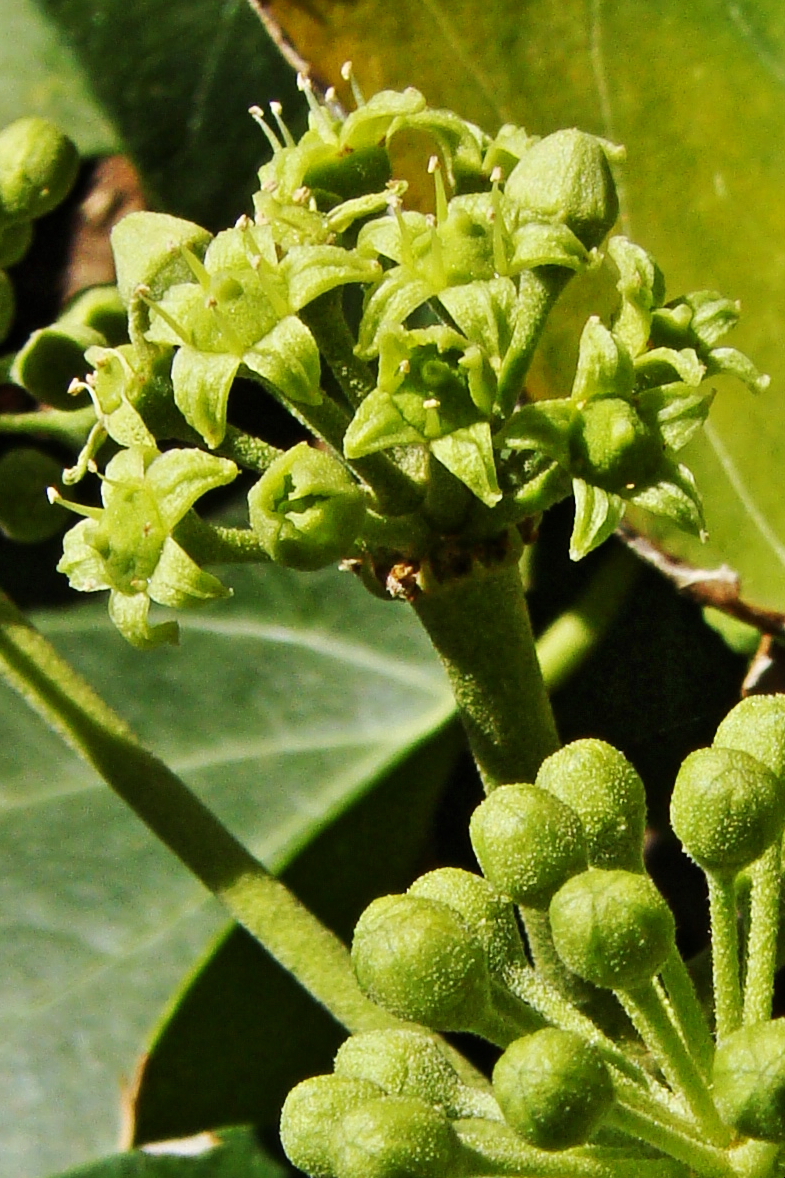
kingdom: Plantae
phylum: Tracheophyta
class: Magnoliopsida
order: Apiales
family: Araliaceae
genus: Hedera
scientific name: Hedera helix
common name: Ivy
